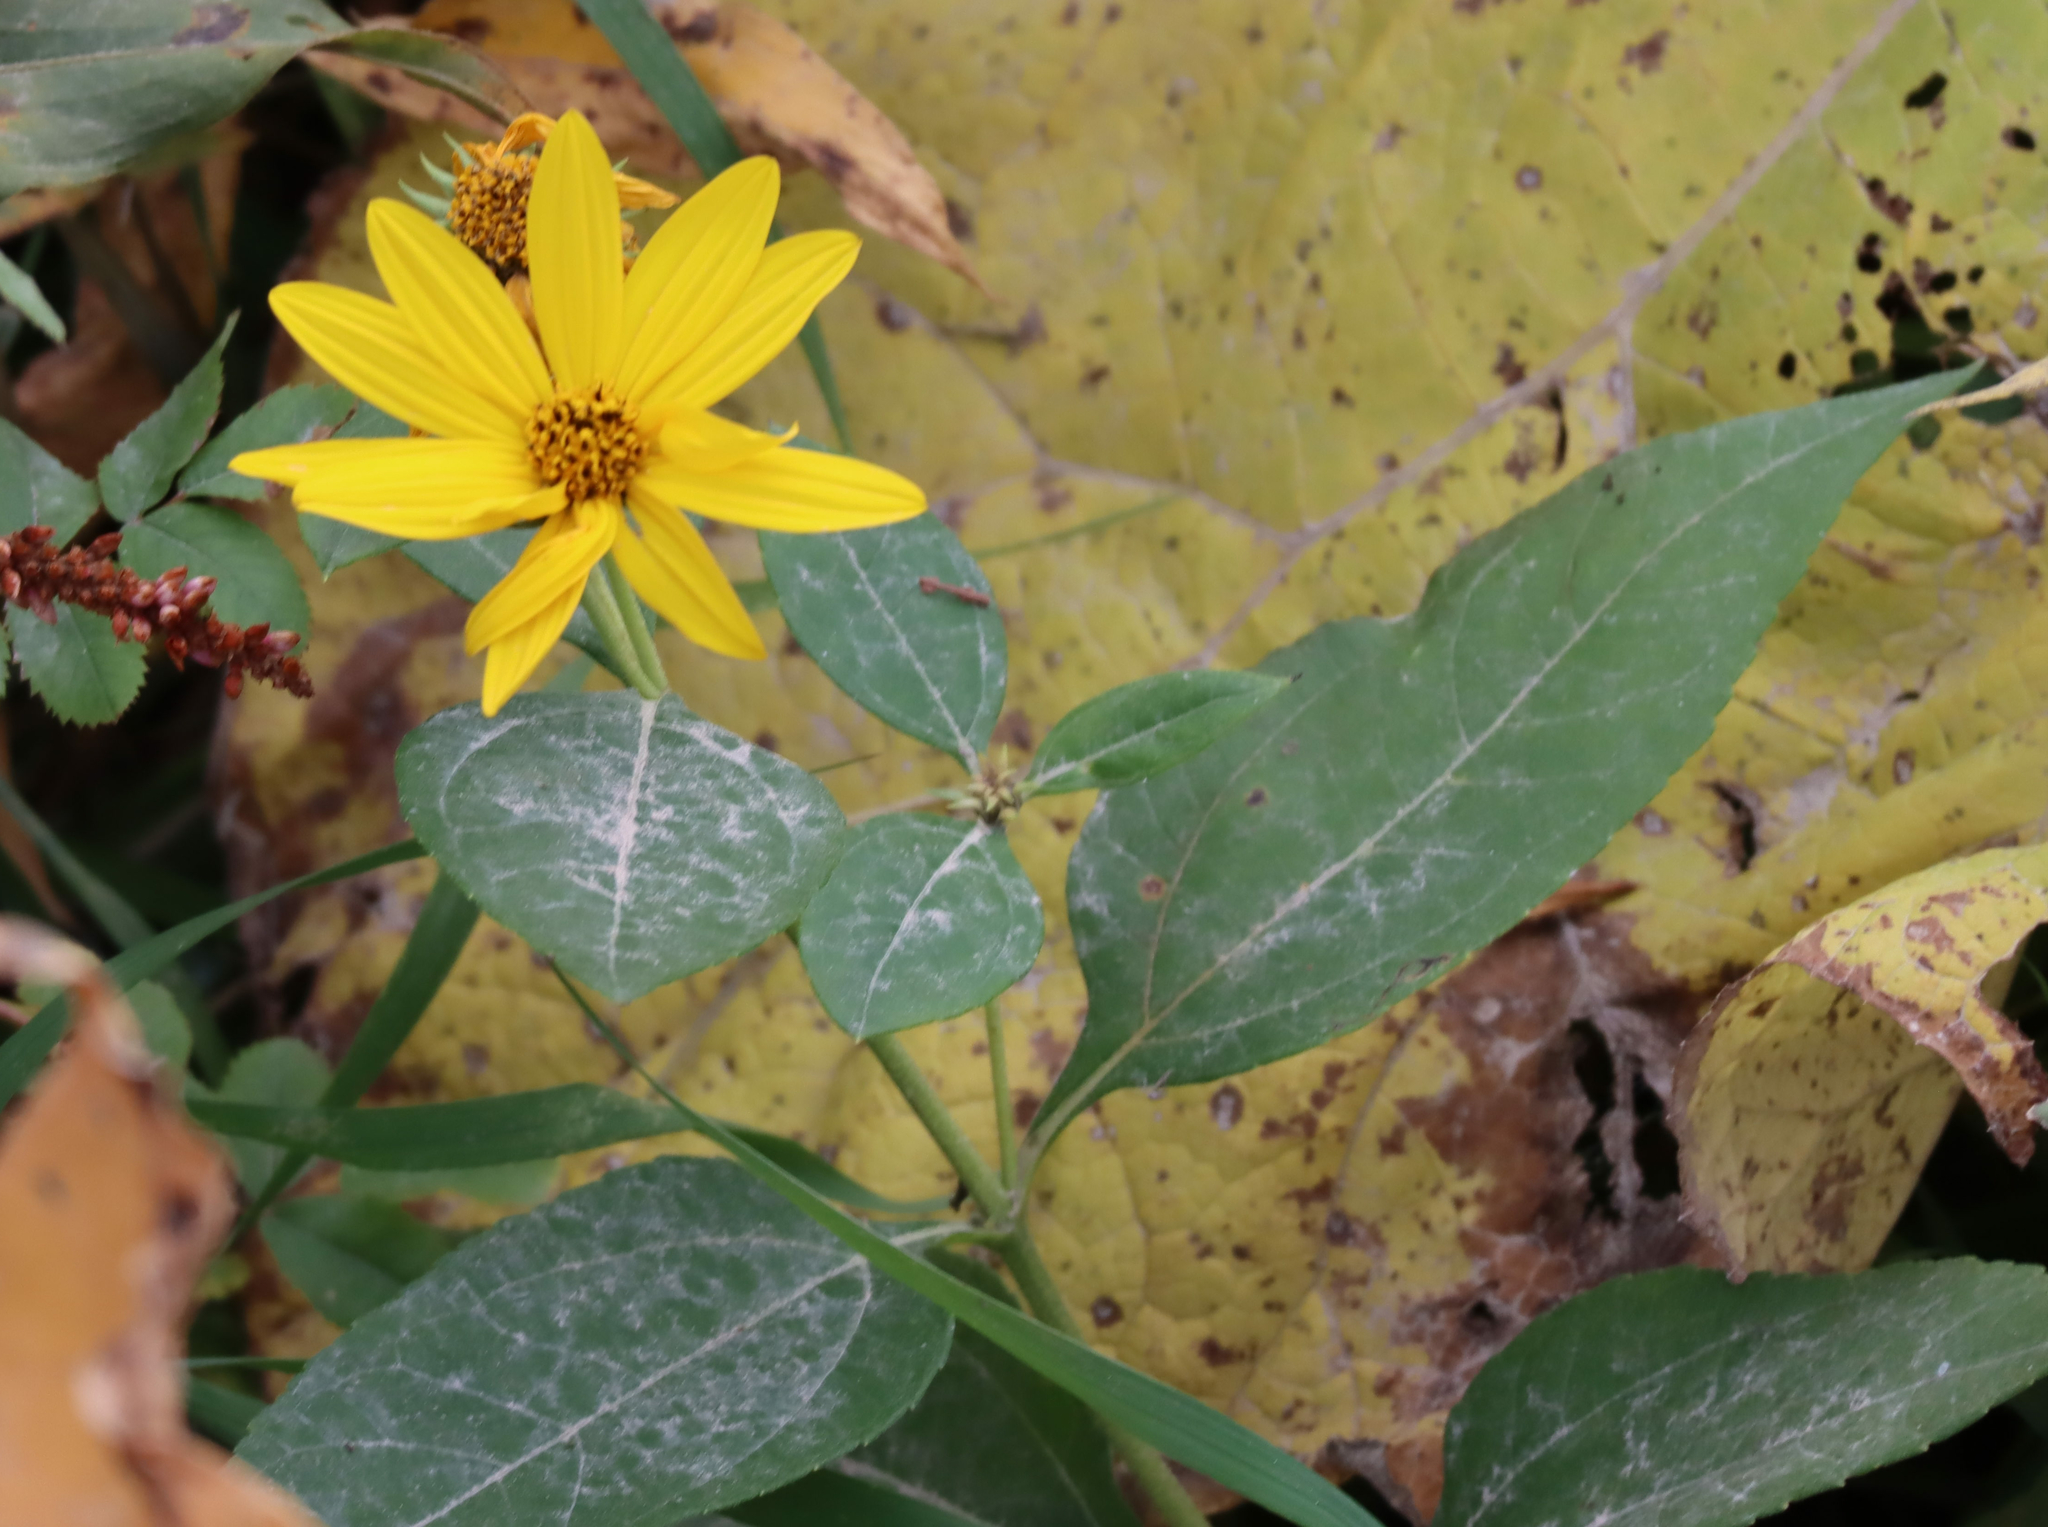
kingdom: Plantae
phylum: Tracheophyta
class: Magnoliopsida
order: Asterales
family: Asteraceae
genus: Helianthus
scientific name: Helianthus tuberosus
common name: Jerusalem artichoke
